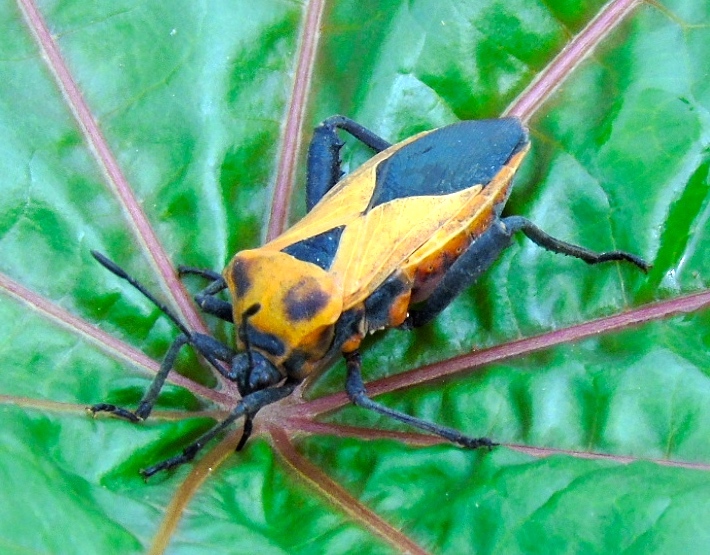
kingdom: Animalia
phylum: Arthropoda
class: Insecta
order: Hemiptera
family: Coreidae
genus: Sagotylus
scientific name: Sagotylus confluens
